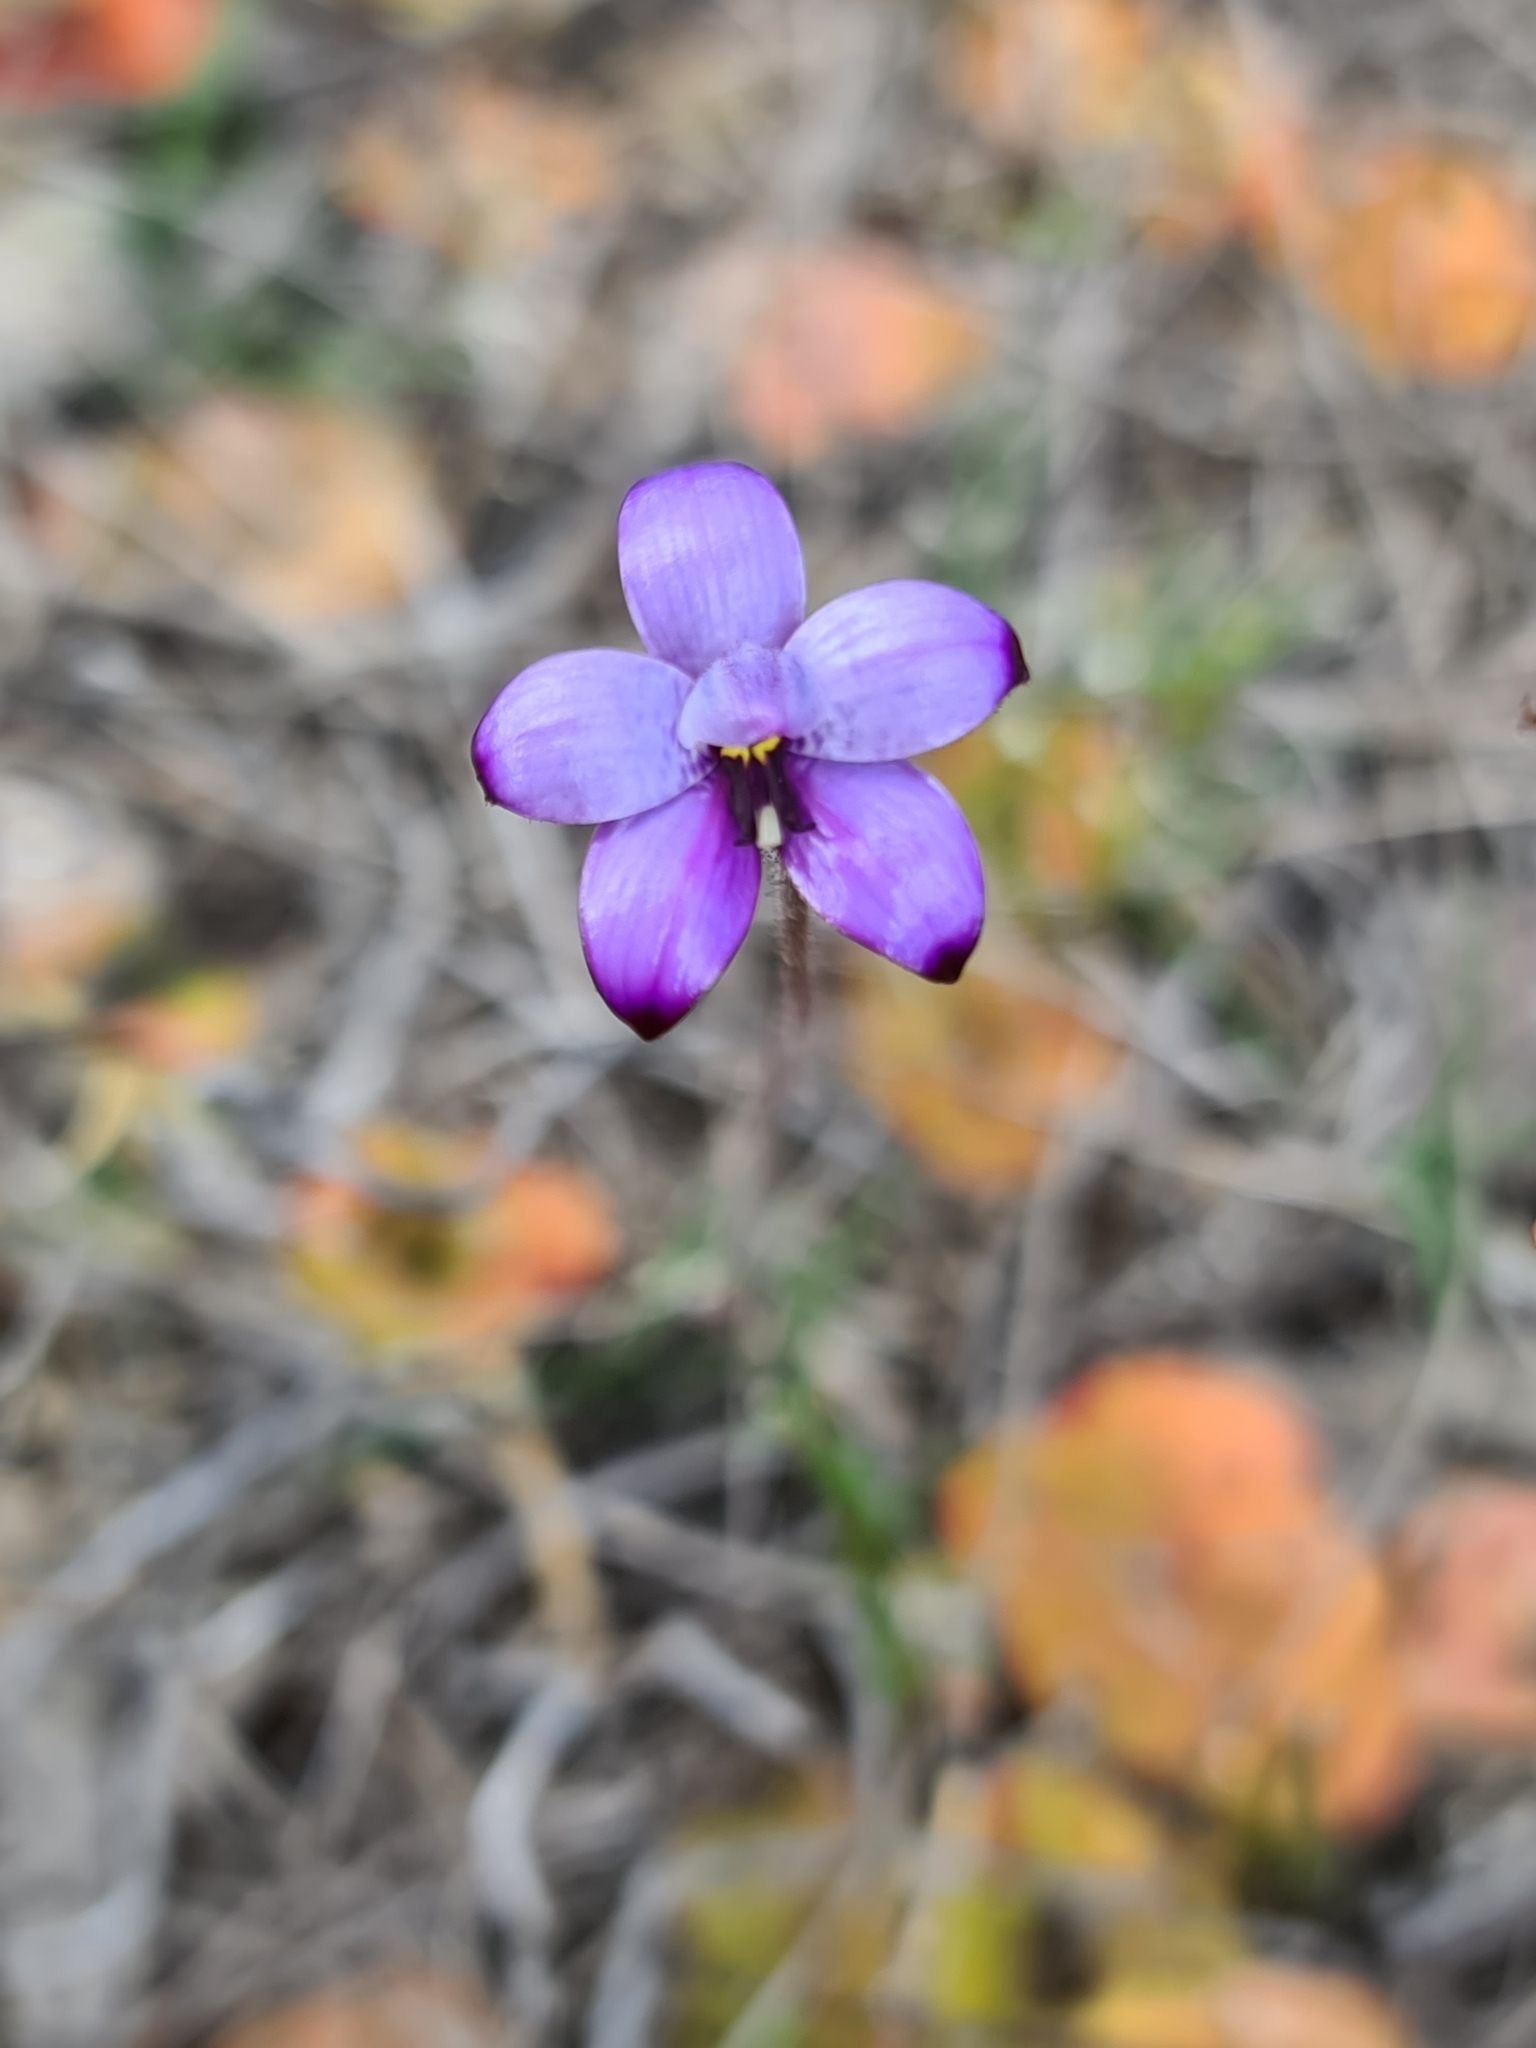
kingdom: Plantae
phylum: Tracheophyta
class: Liliopsida
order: Asparagales
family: Orchidaceae
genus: Caladenia
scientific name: Caladenia brunonis
